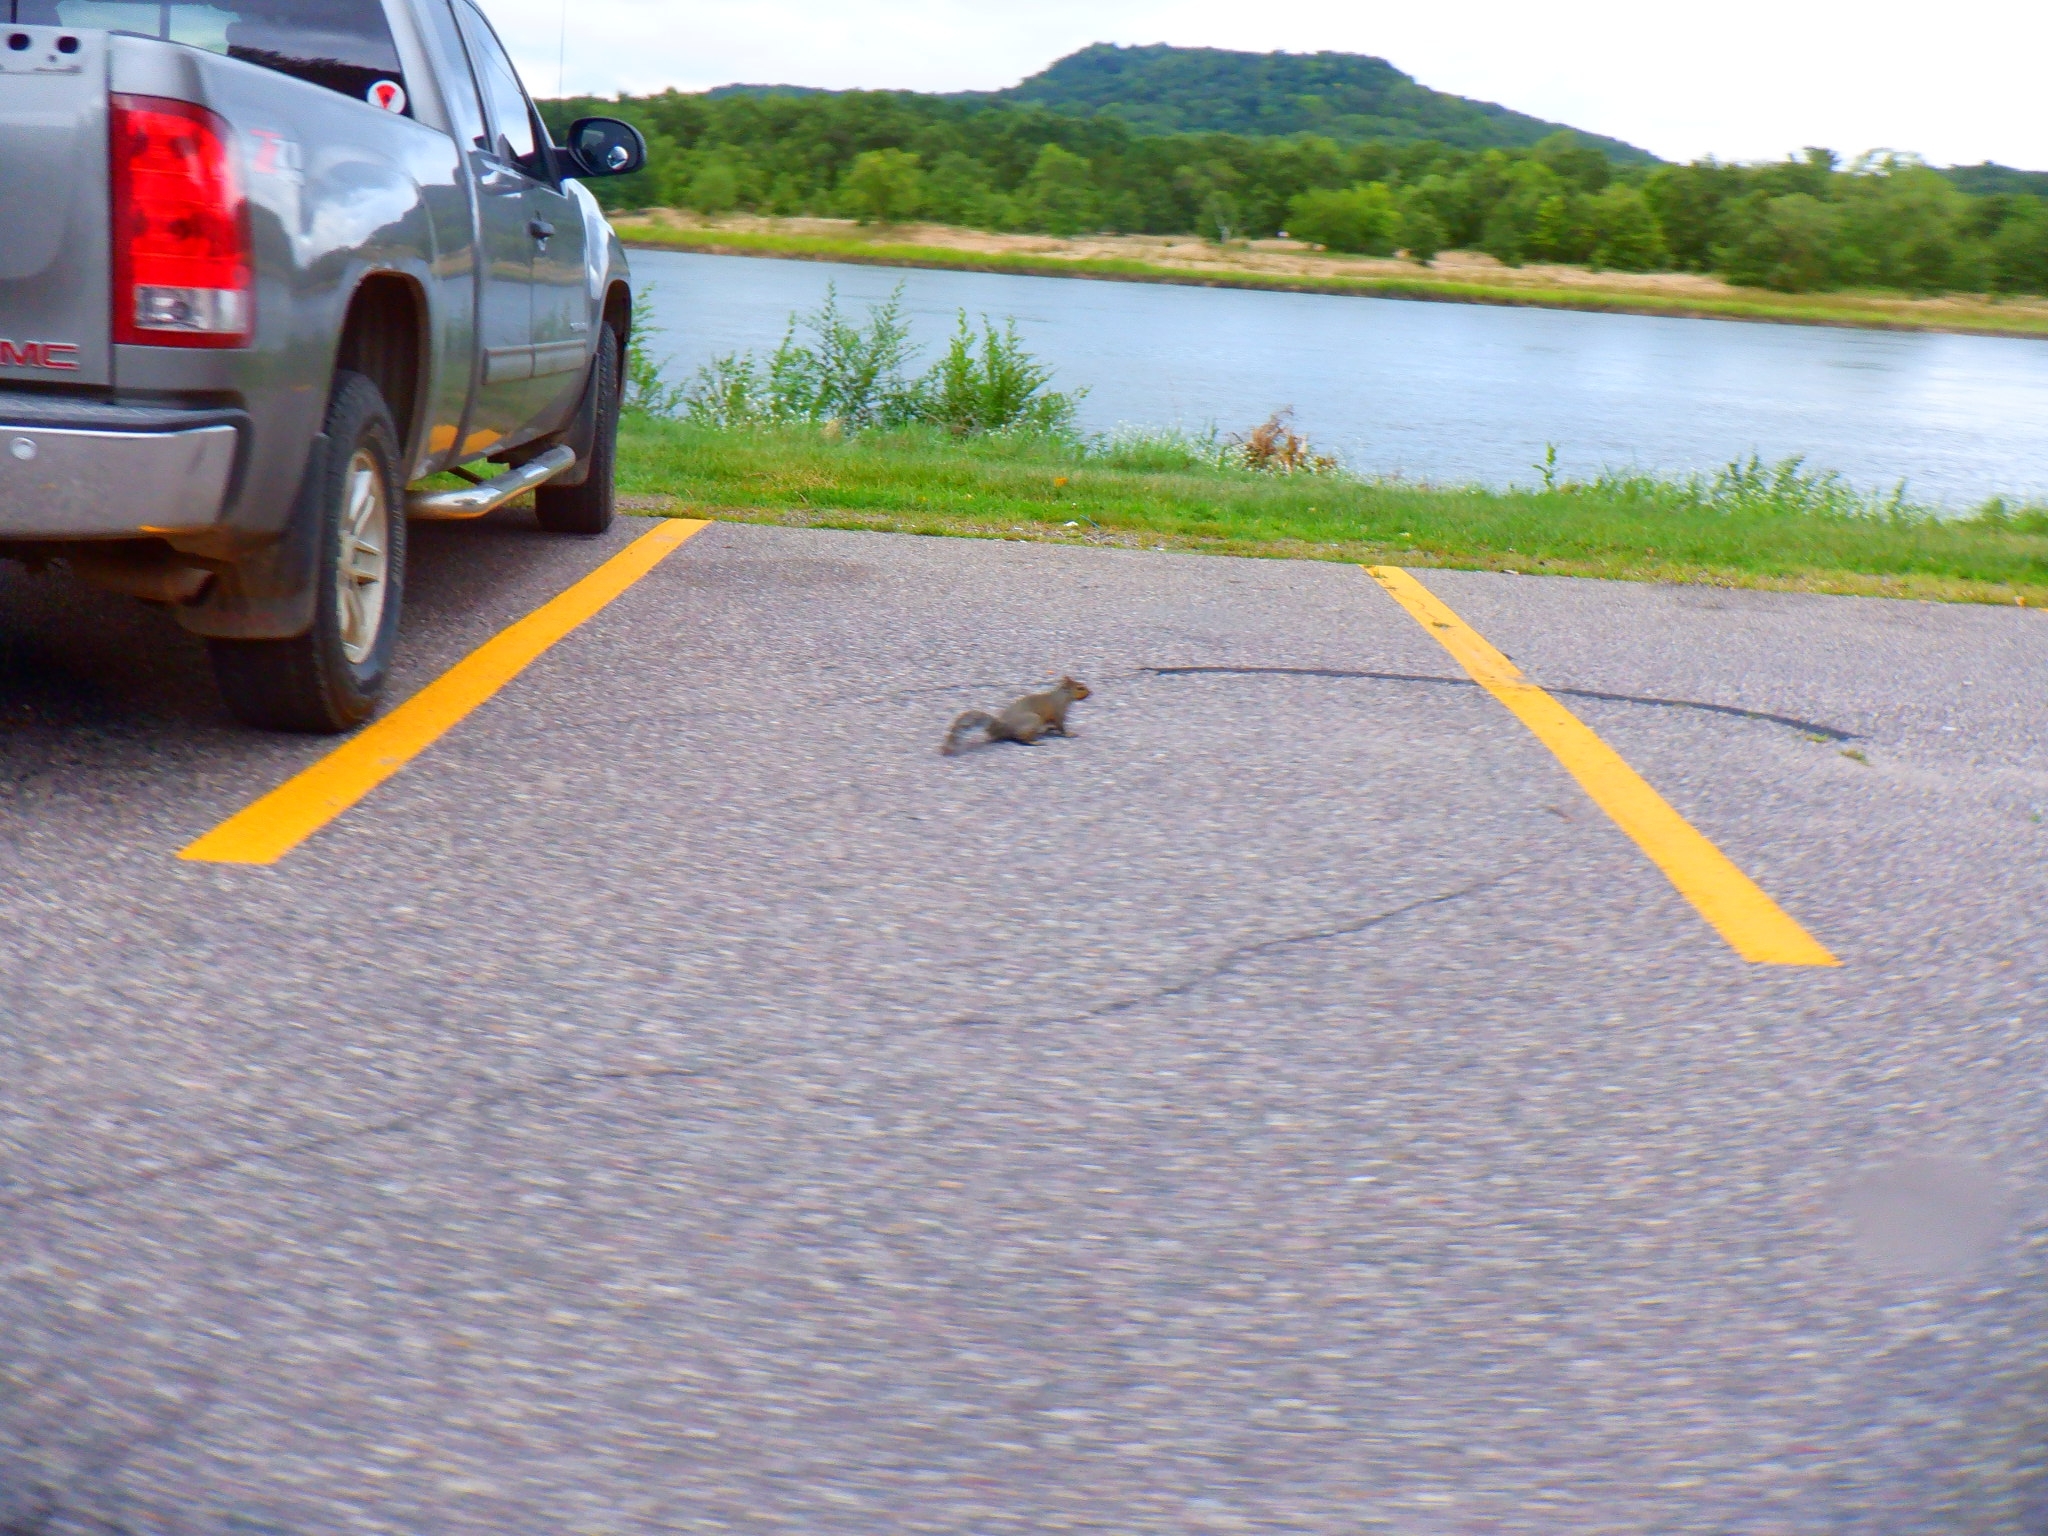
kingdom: Animalia
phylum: Chordata
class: Mammalia
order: Rodentia
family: Sciuridae
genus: Sciurus
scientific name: Sciurus carolinensis
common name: Eastern gray squirrel
